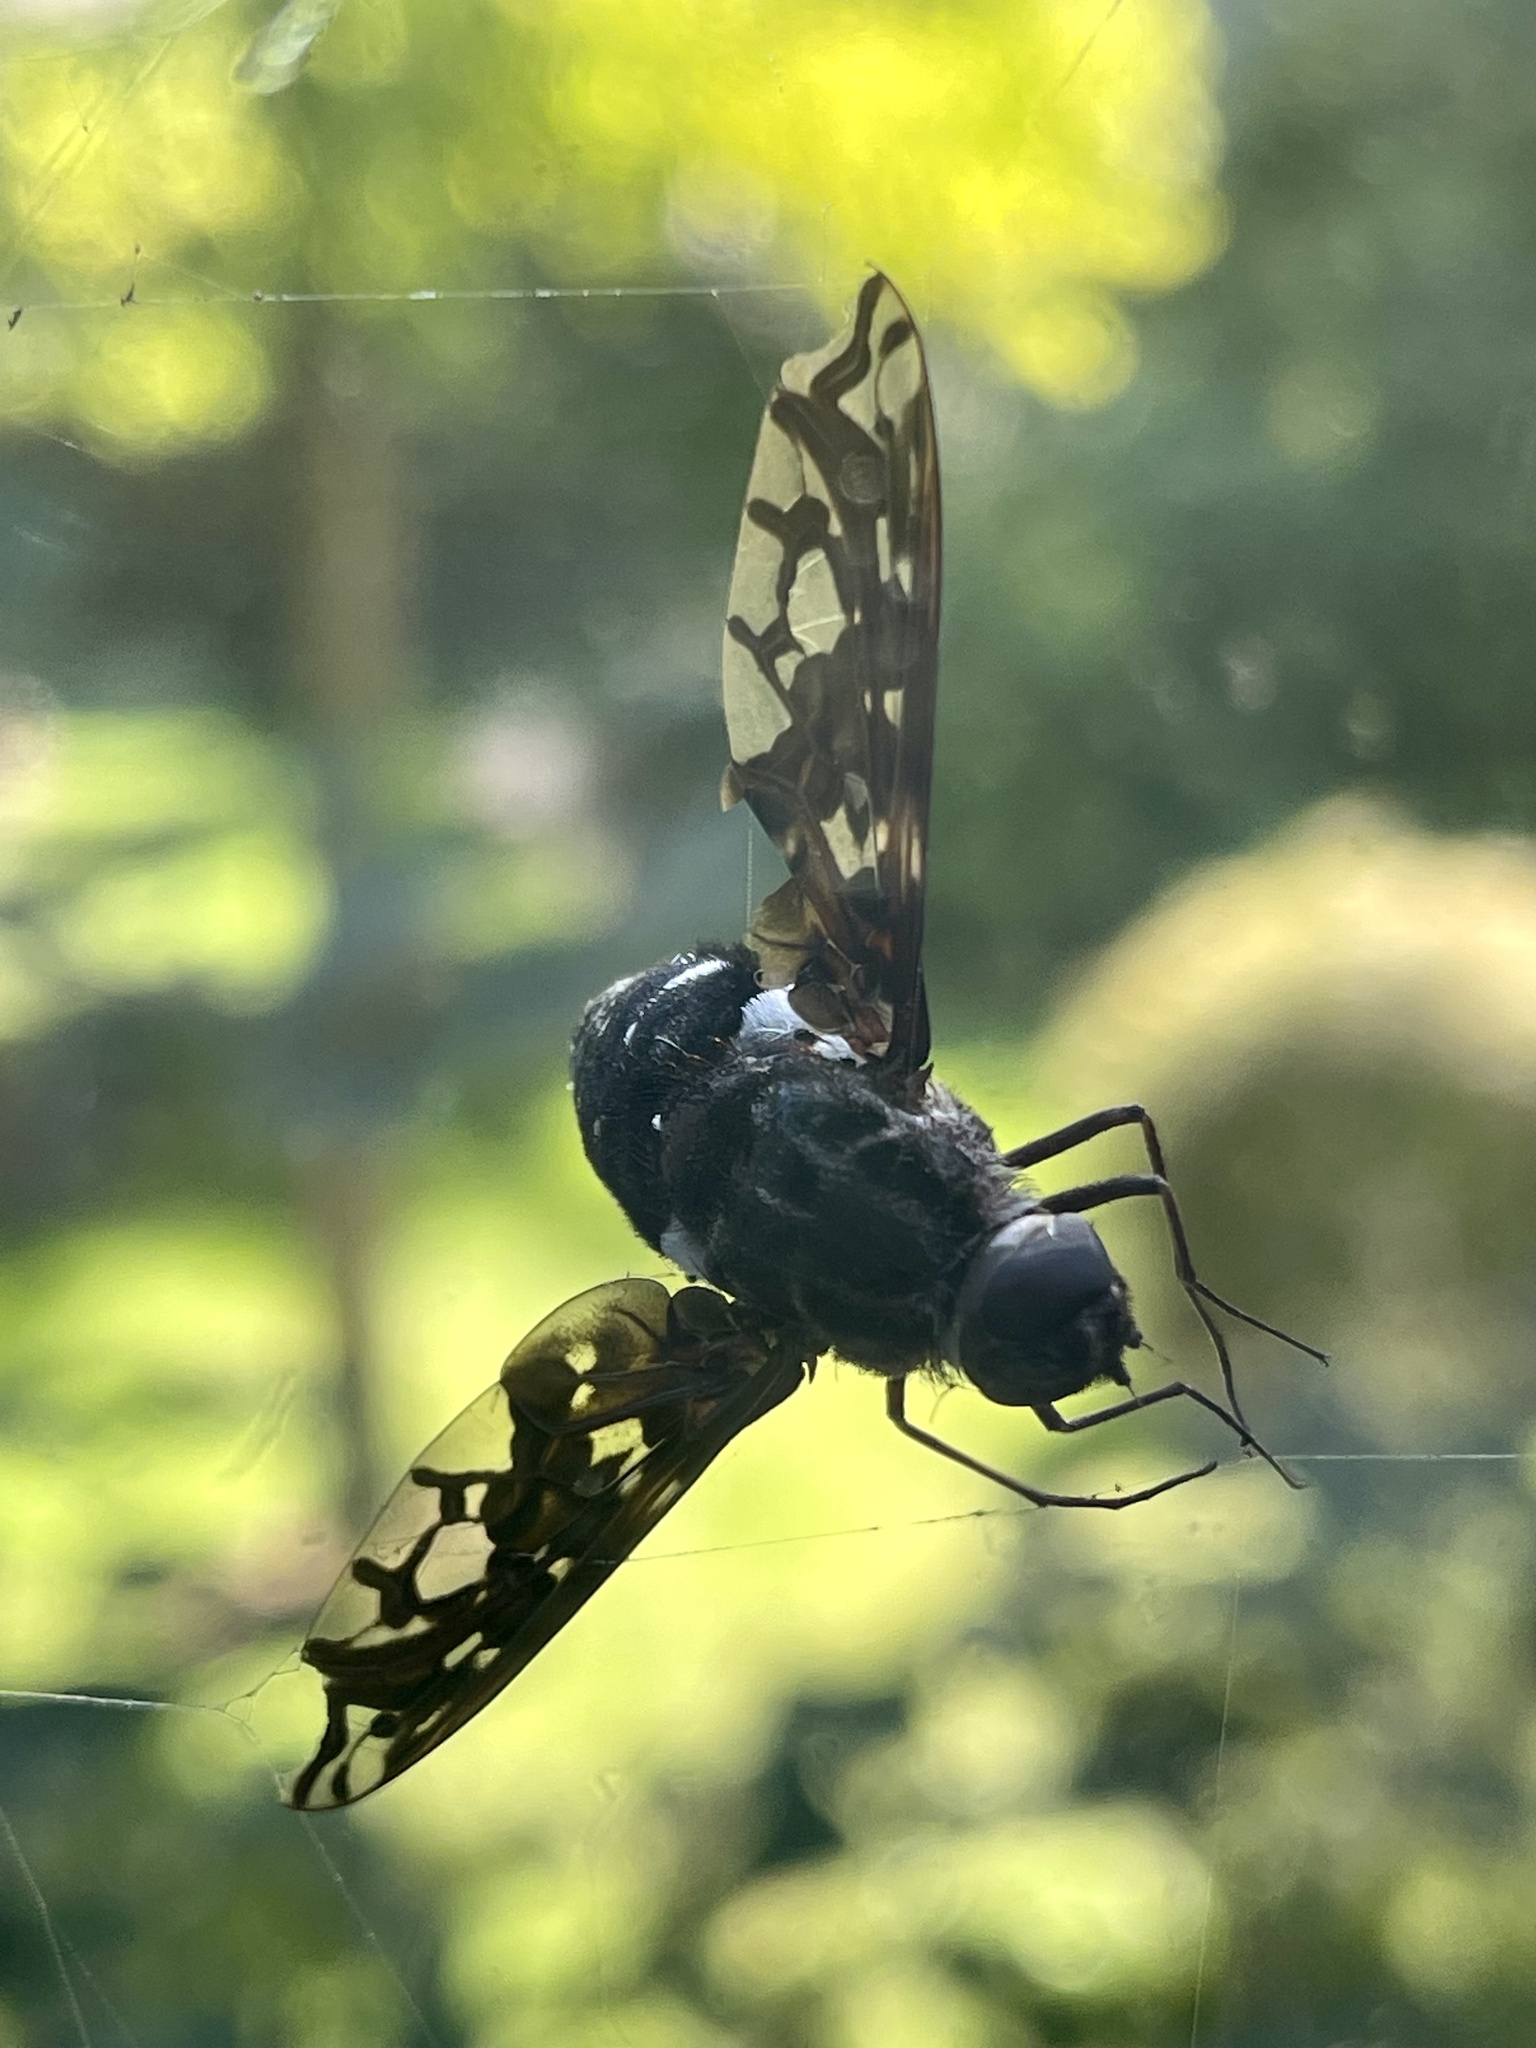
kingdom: Animalia
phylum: Arthropoda
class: Insecta
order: Diptera
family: Bombyliidae
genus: Xenox
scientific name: Xenox tigrinus
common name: Tiger bee fly
